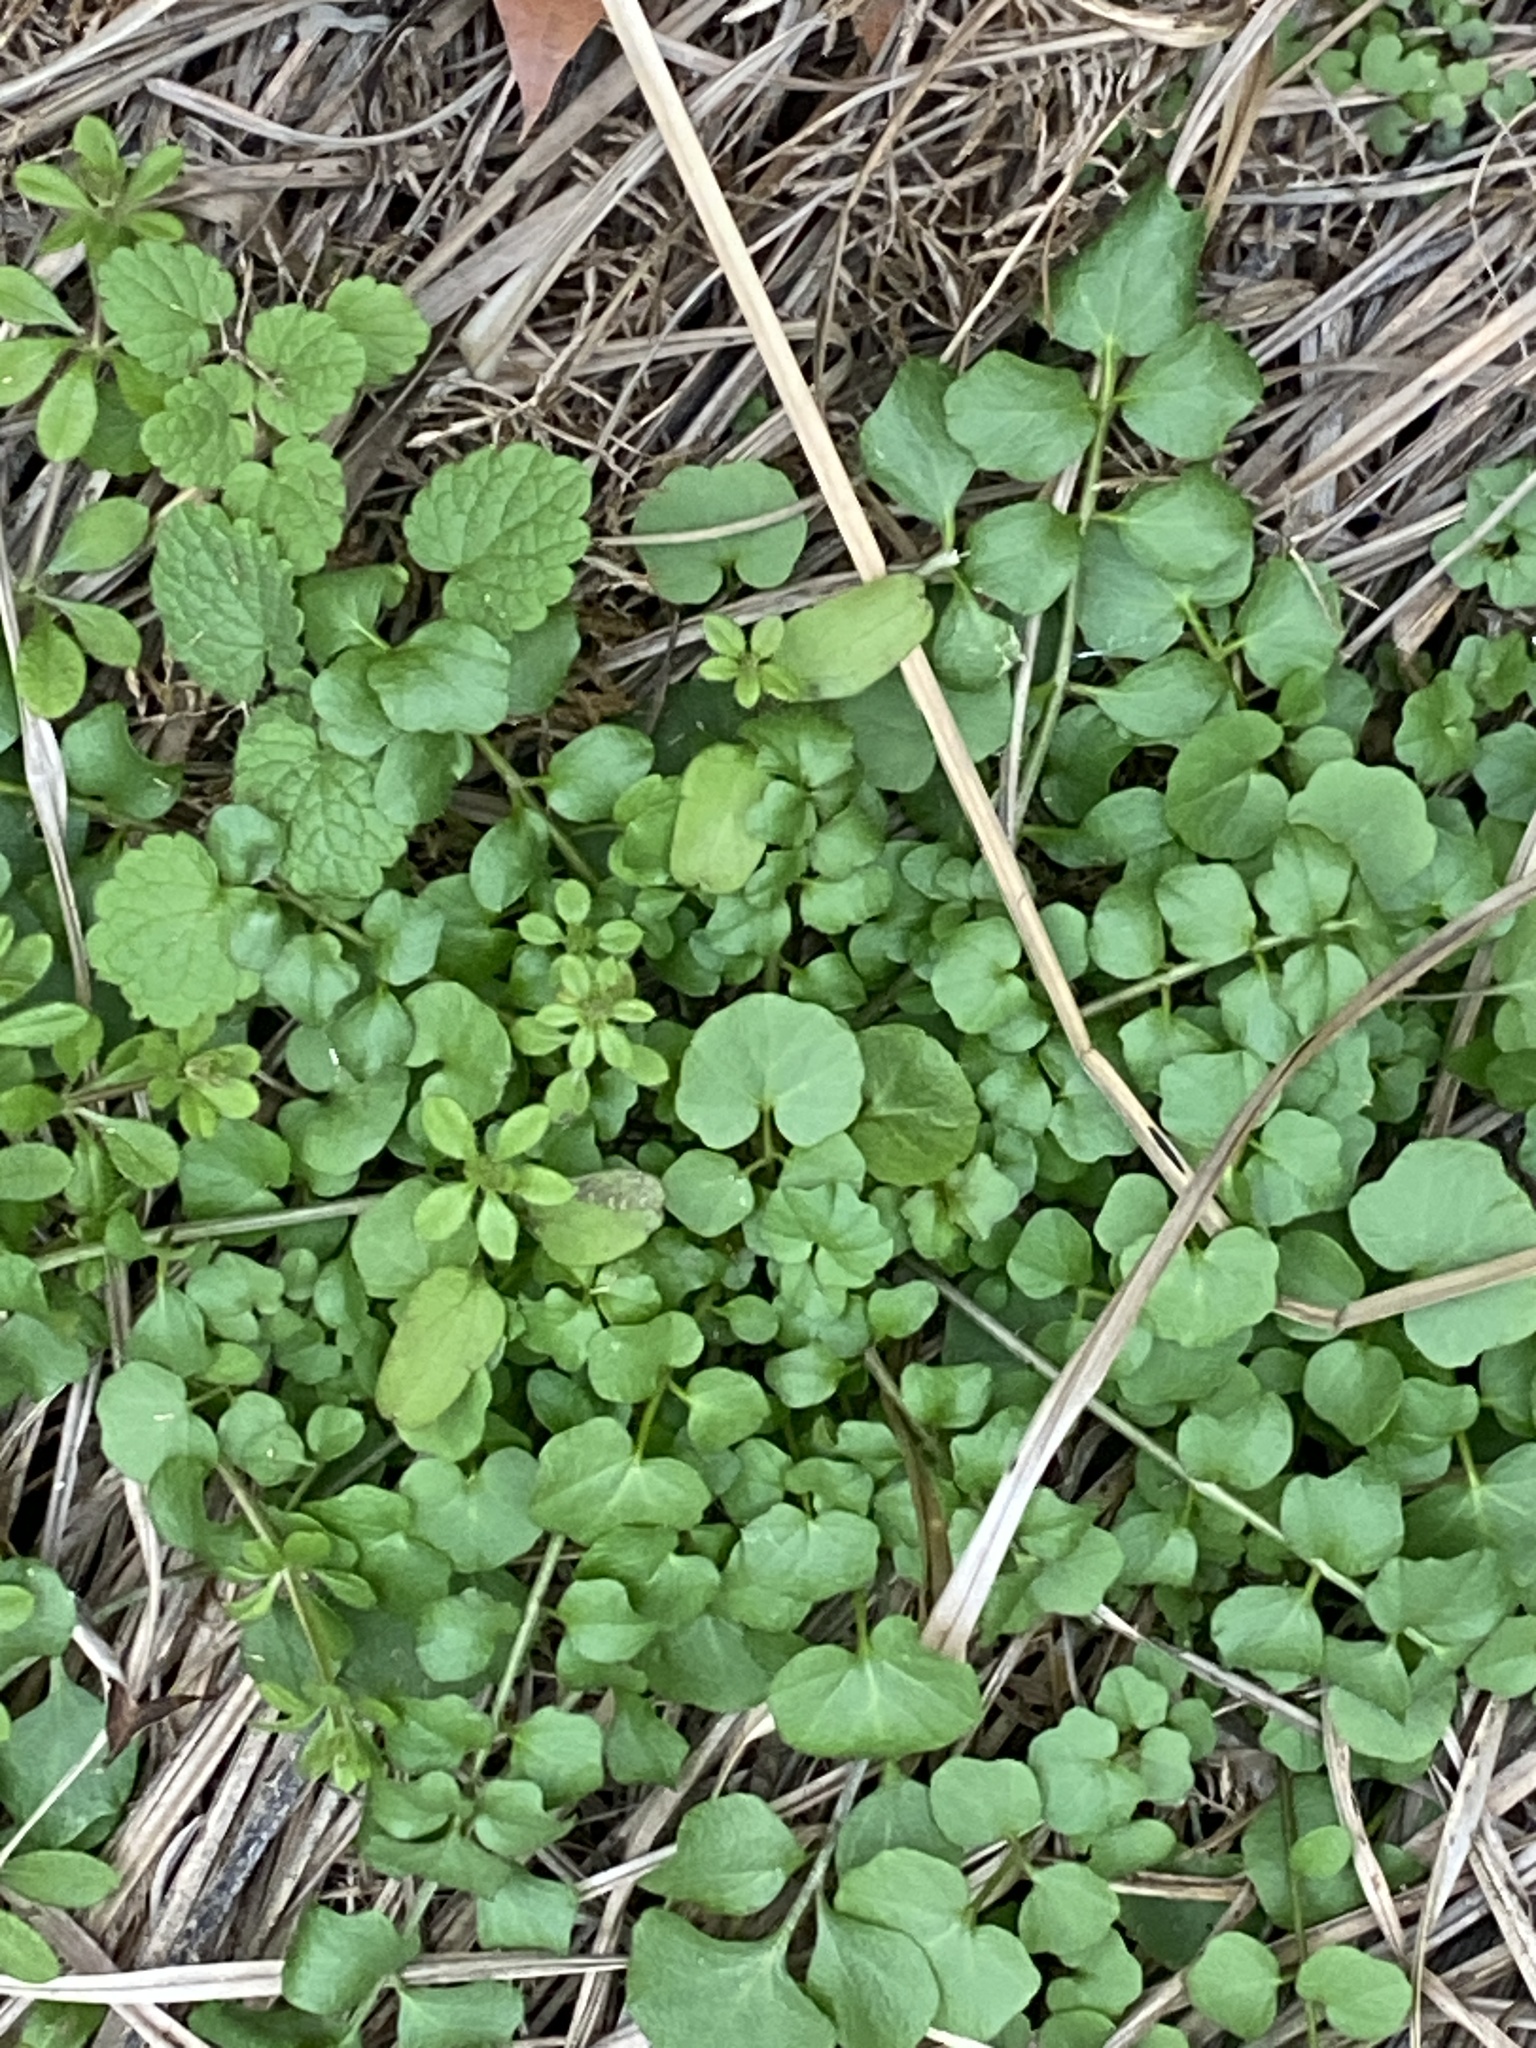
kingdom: Plantae
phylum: Tracheophyta
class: Magnoliopsida
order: Brassicales
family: Brassicaceae
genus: Cardamine
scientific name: Cardamine hirsuta
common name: Hairy bittercress
